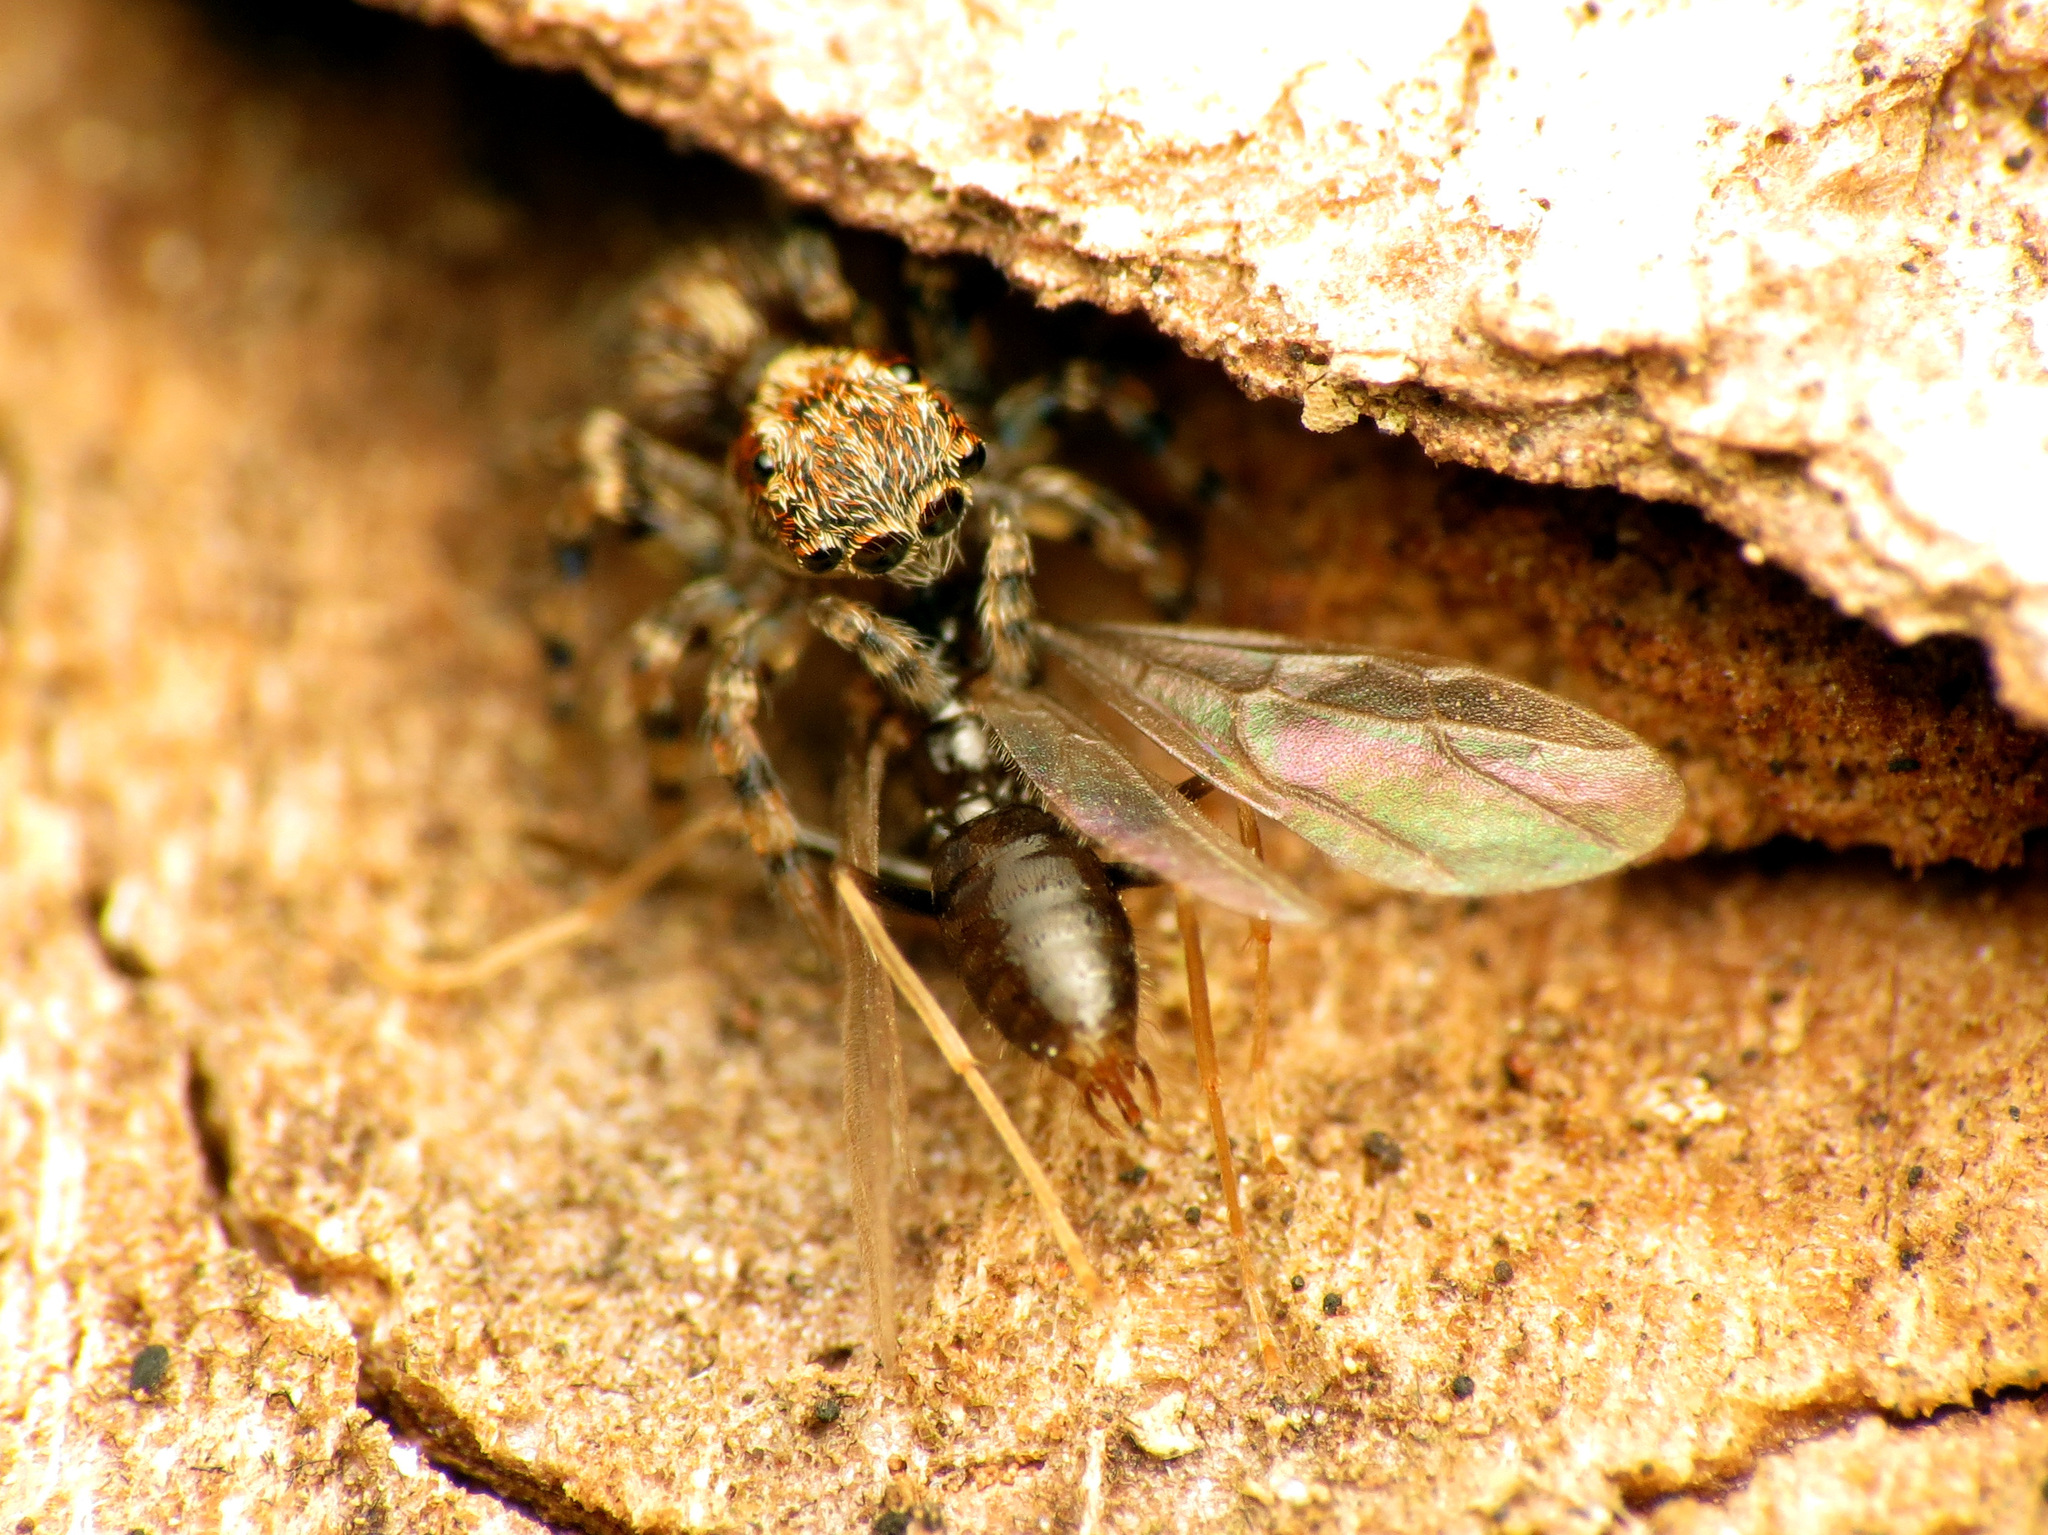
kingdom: Animalia
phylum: Arthropoda
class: Insecta
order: Hymenoptera
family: Formicidae
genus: Prenolepis
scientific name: Prenolepis imparis
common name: Small honey ant
